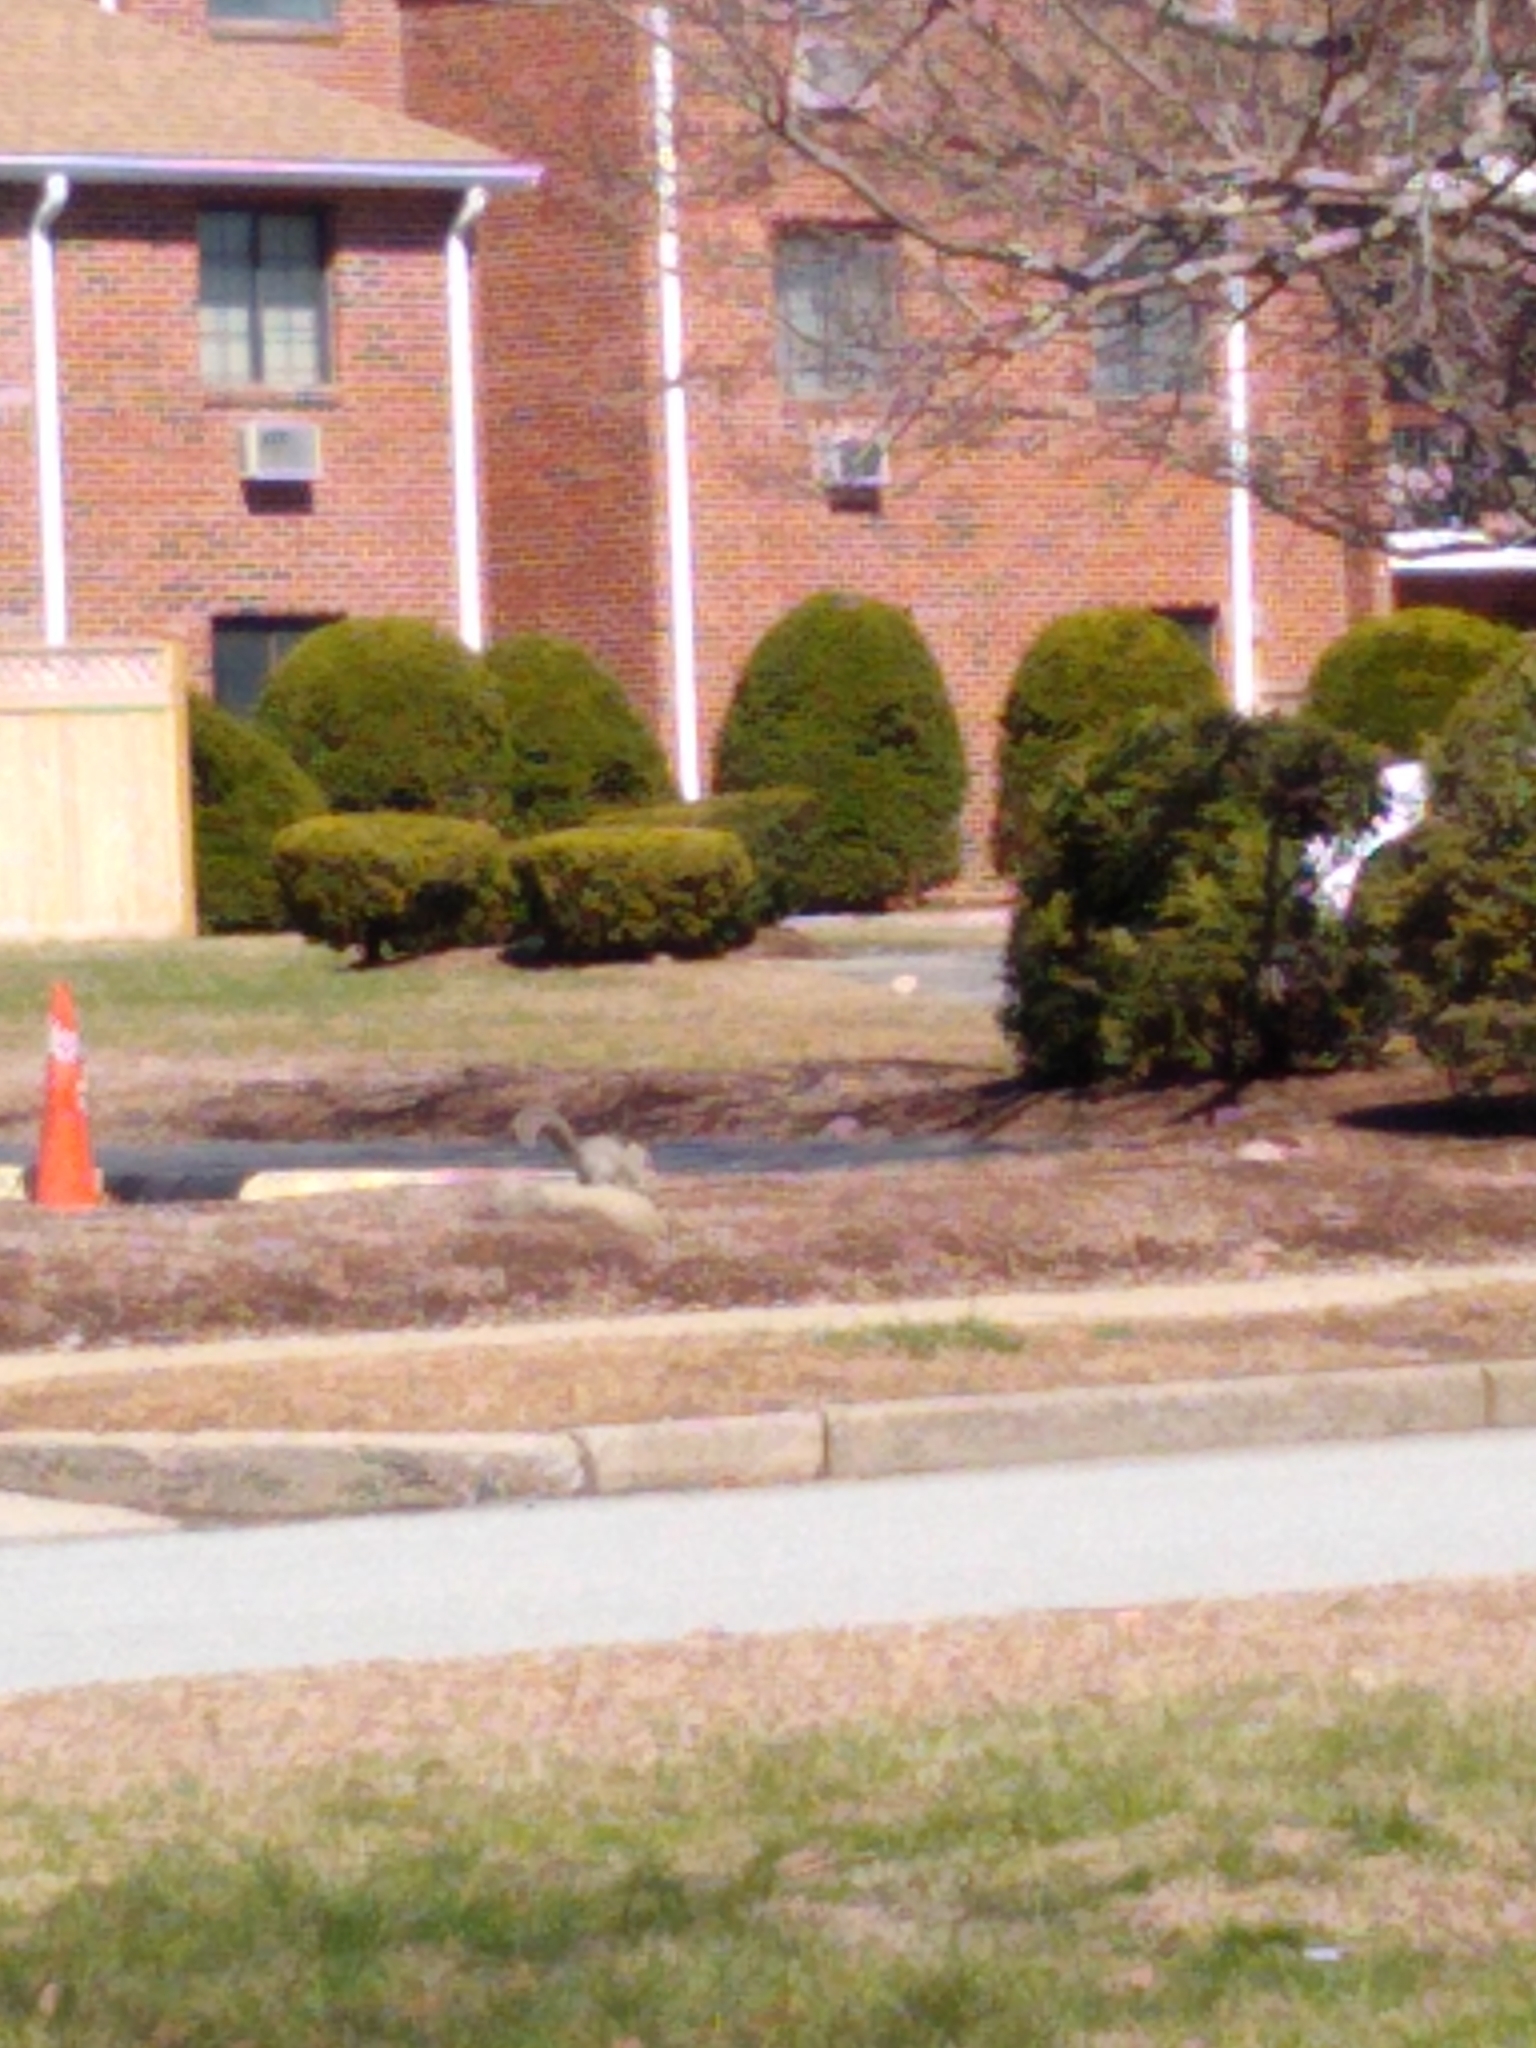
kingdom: Animalia
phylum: Chordata
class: Mammalia
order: Rodentia
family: Sciuridae
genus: Sciurus
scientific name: Sciurus carolinensis
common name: Eastern gray squirrel
